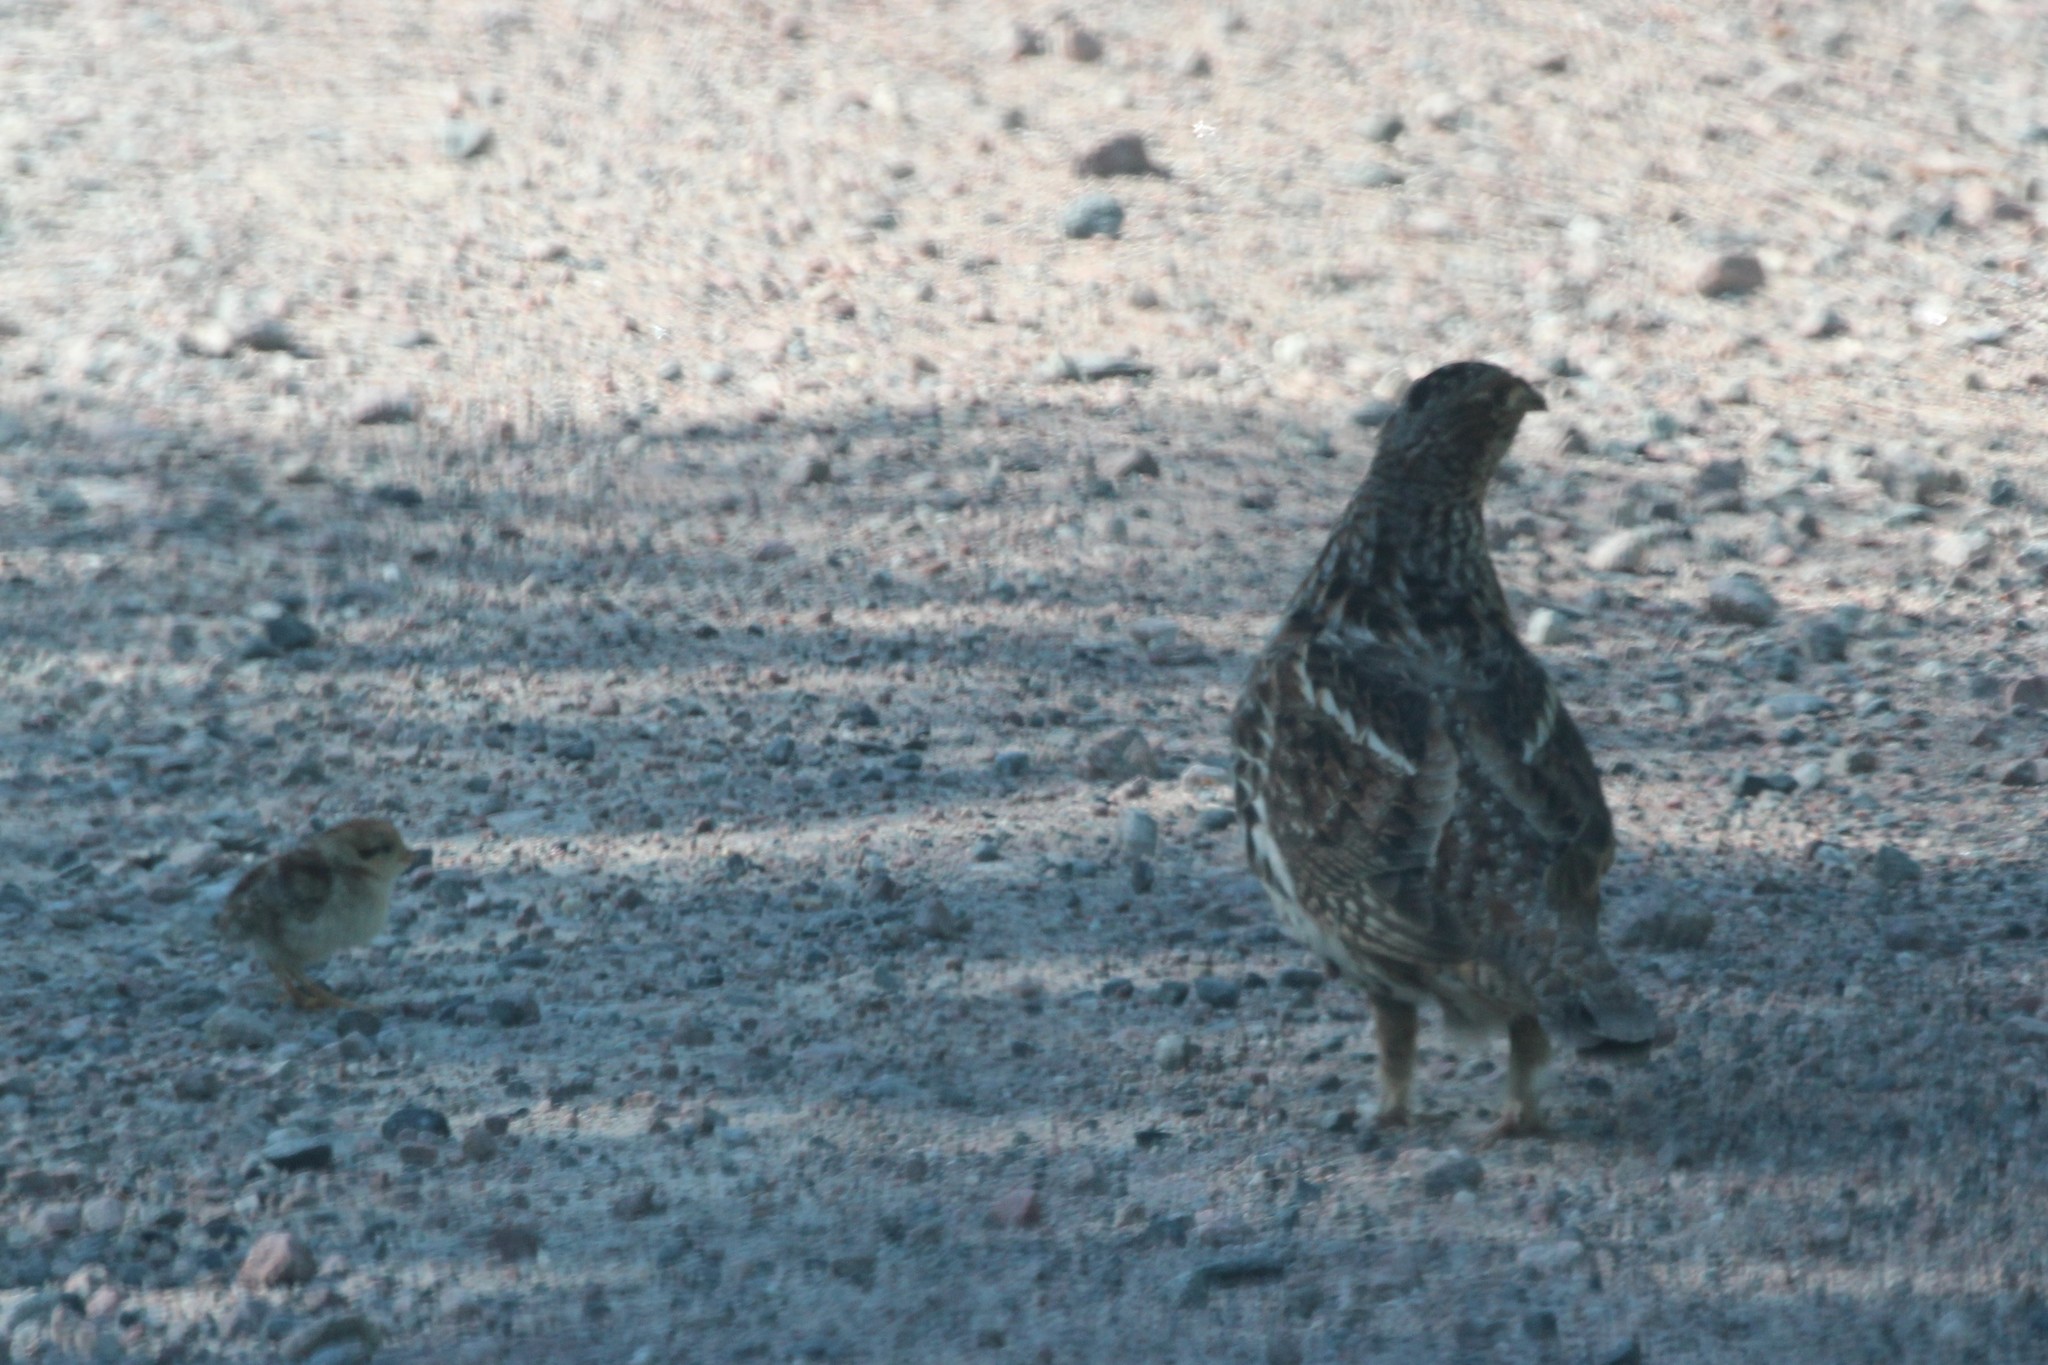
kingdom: Animalia
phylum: Chordata
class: Aves
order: Galliformes
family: Phasianidae
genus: Bonasa
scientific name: Bonasa umbellus
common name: Ruffed grouse
